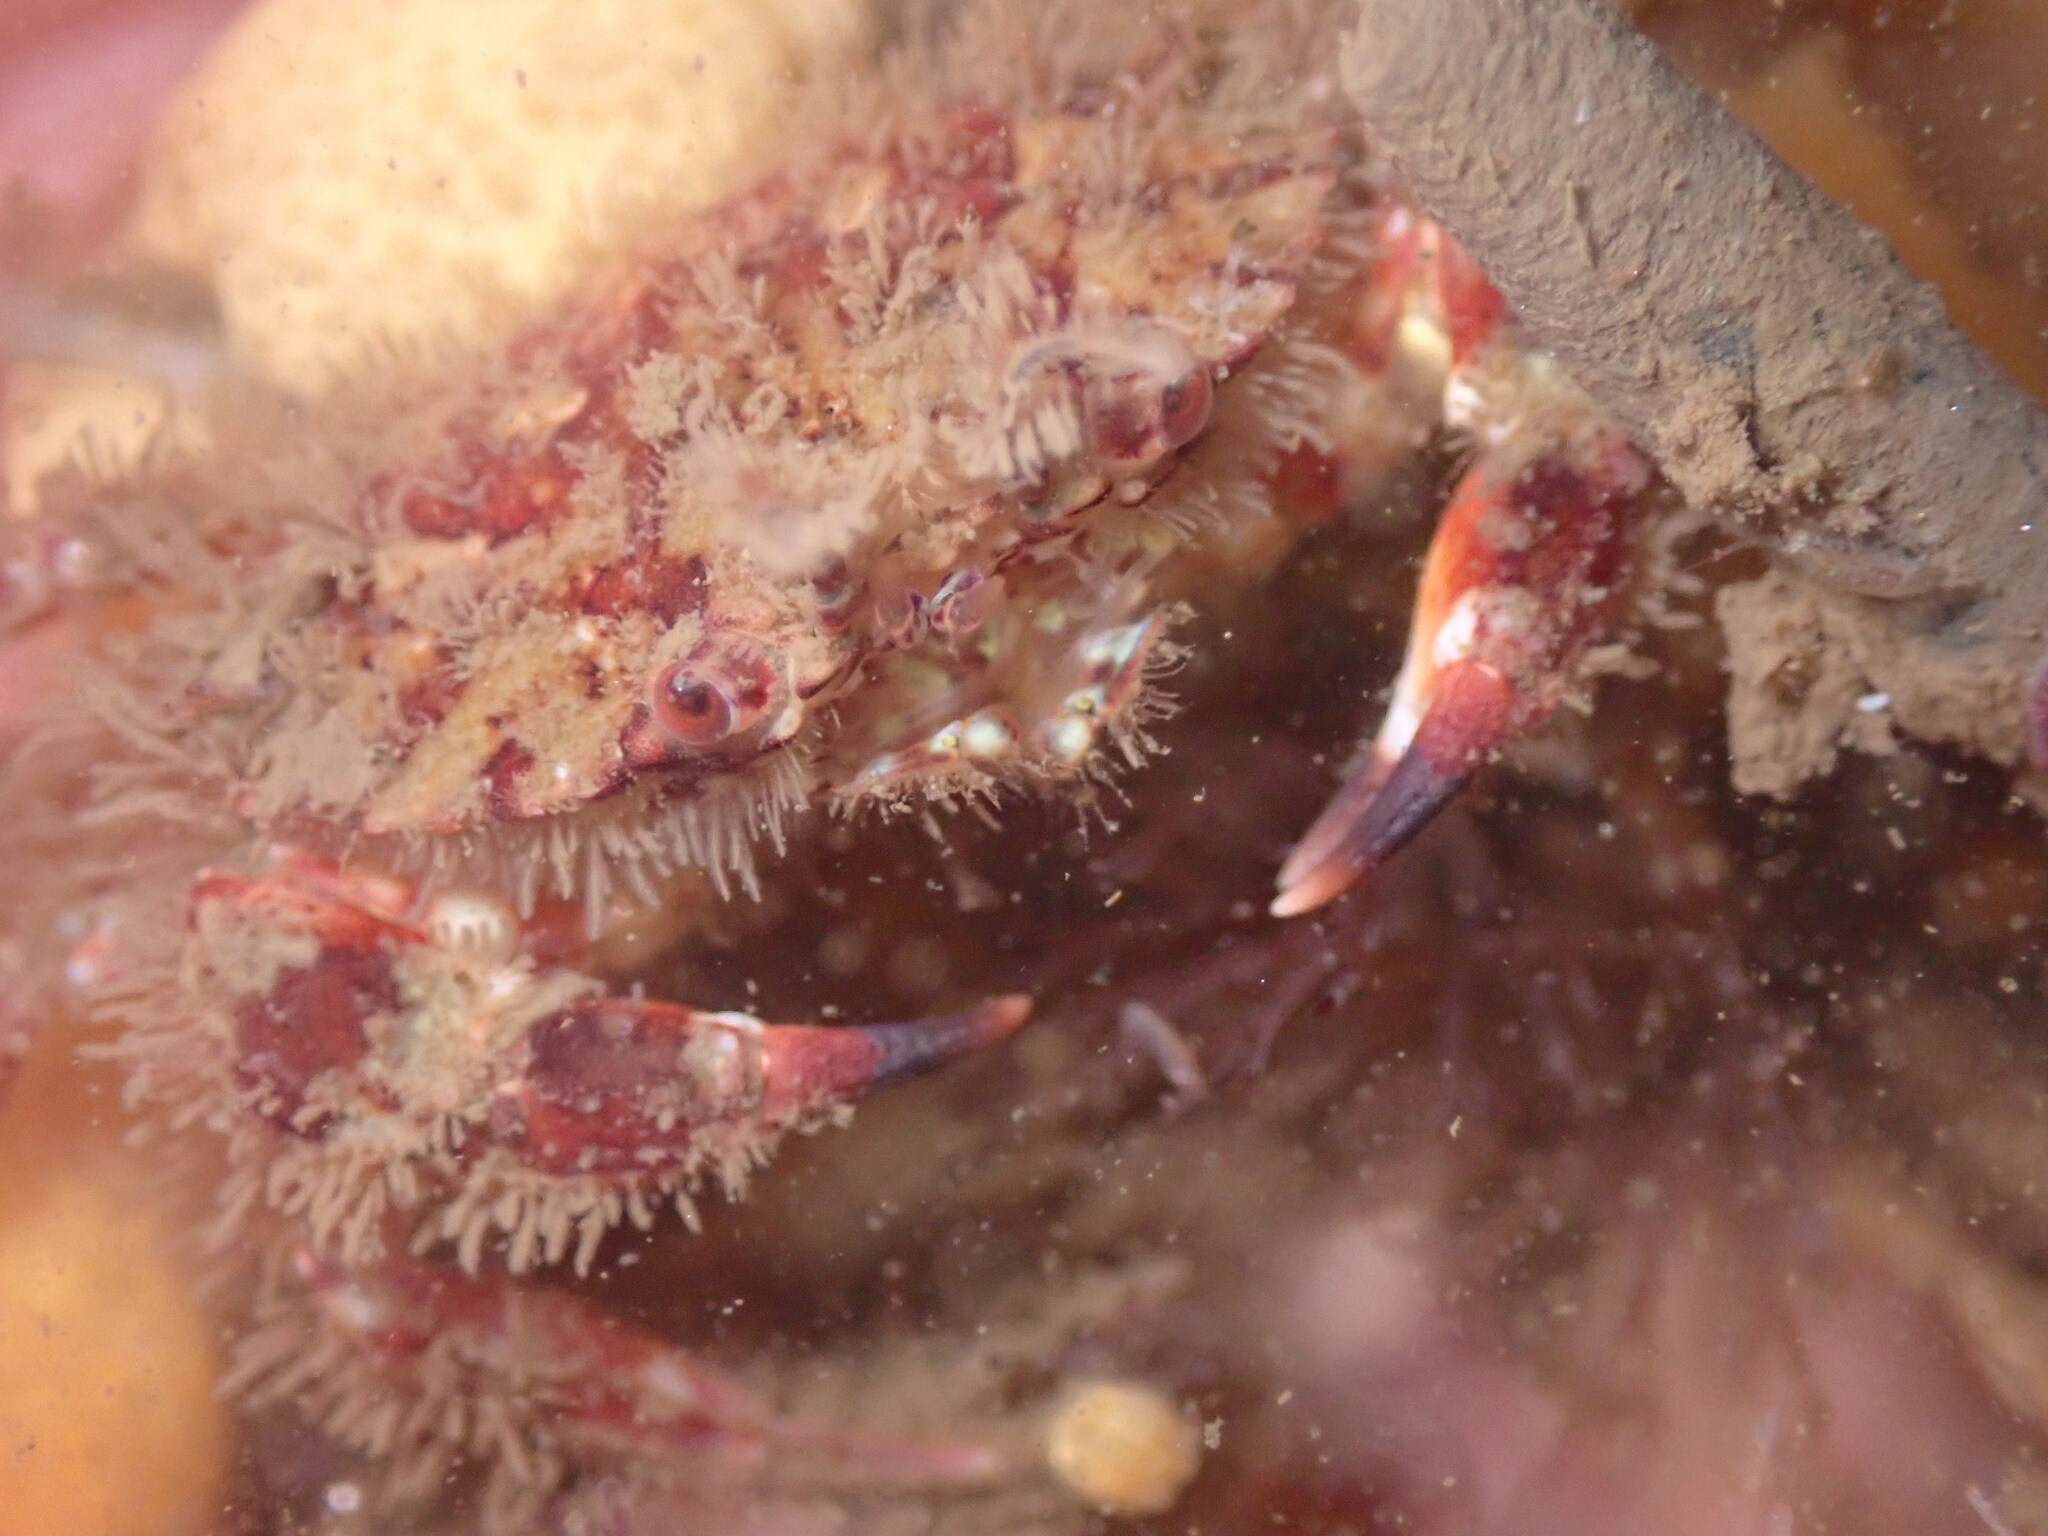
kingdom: Animalia
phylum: Arthropoda
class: Malacostraca
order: Decapoda
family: Cancridae
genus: Romaleon
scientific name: Romaleon antennarium
